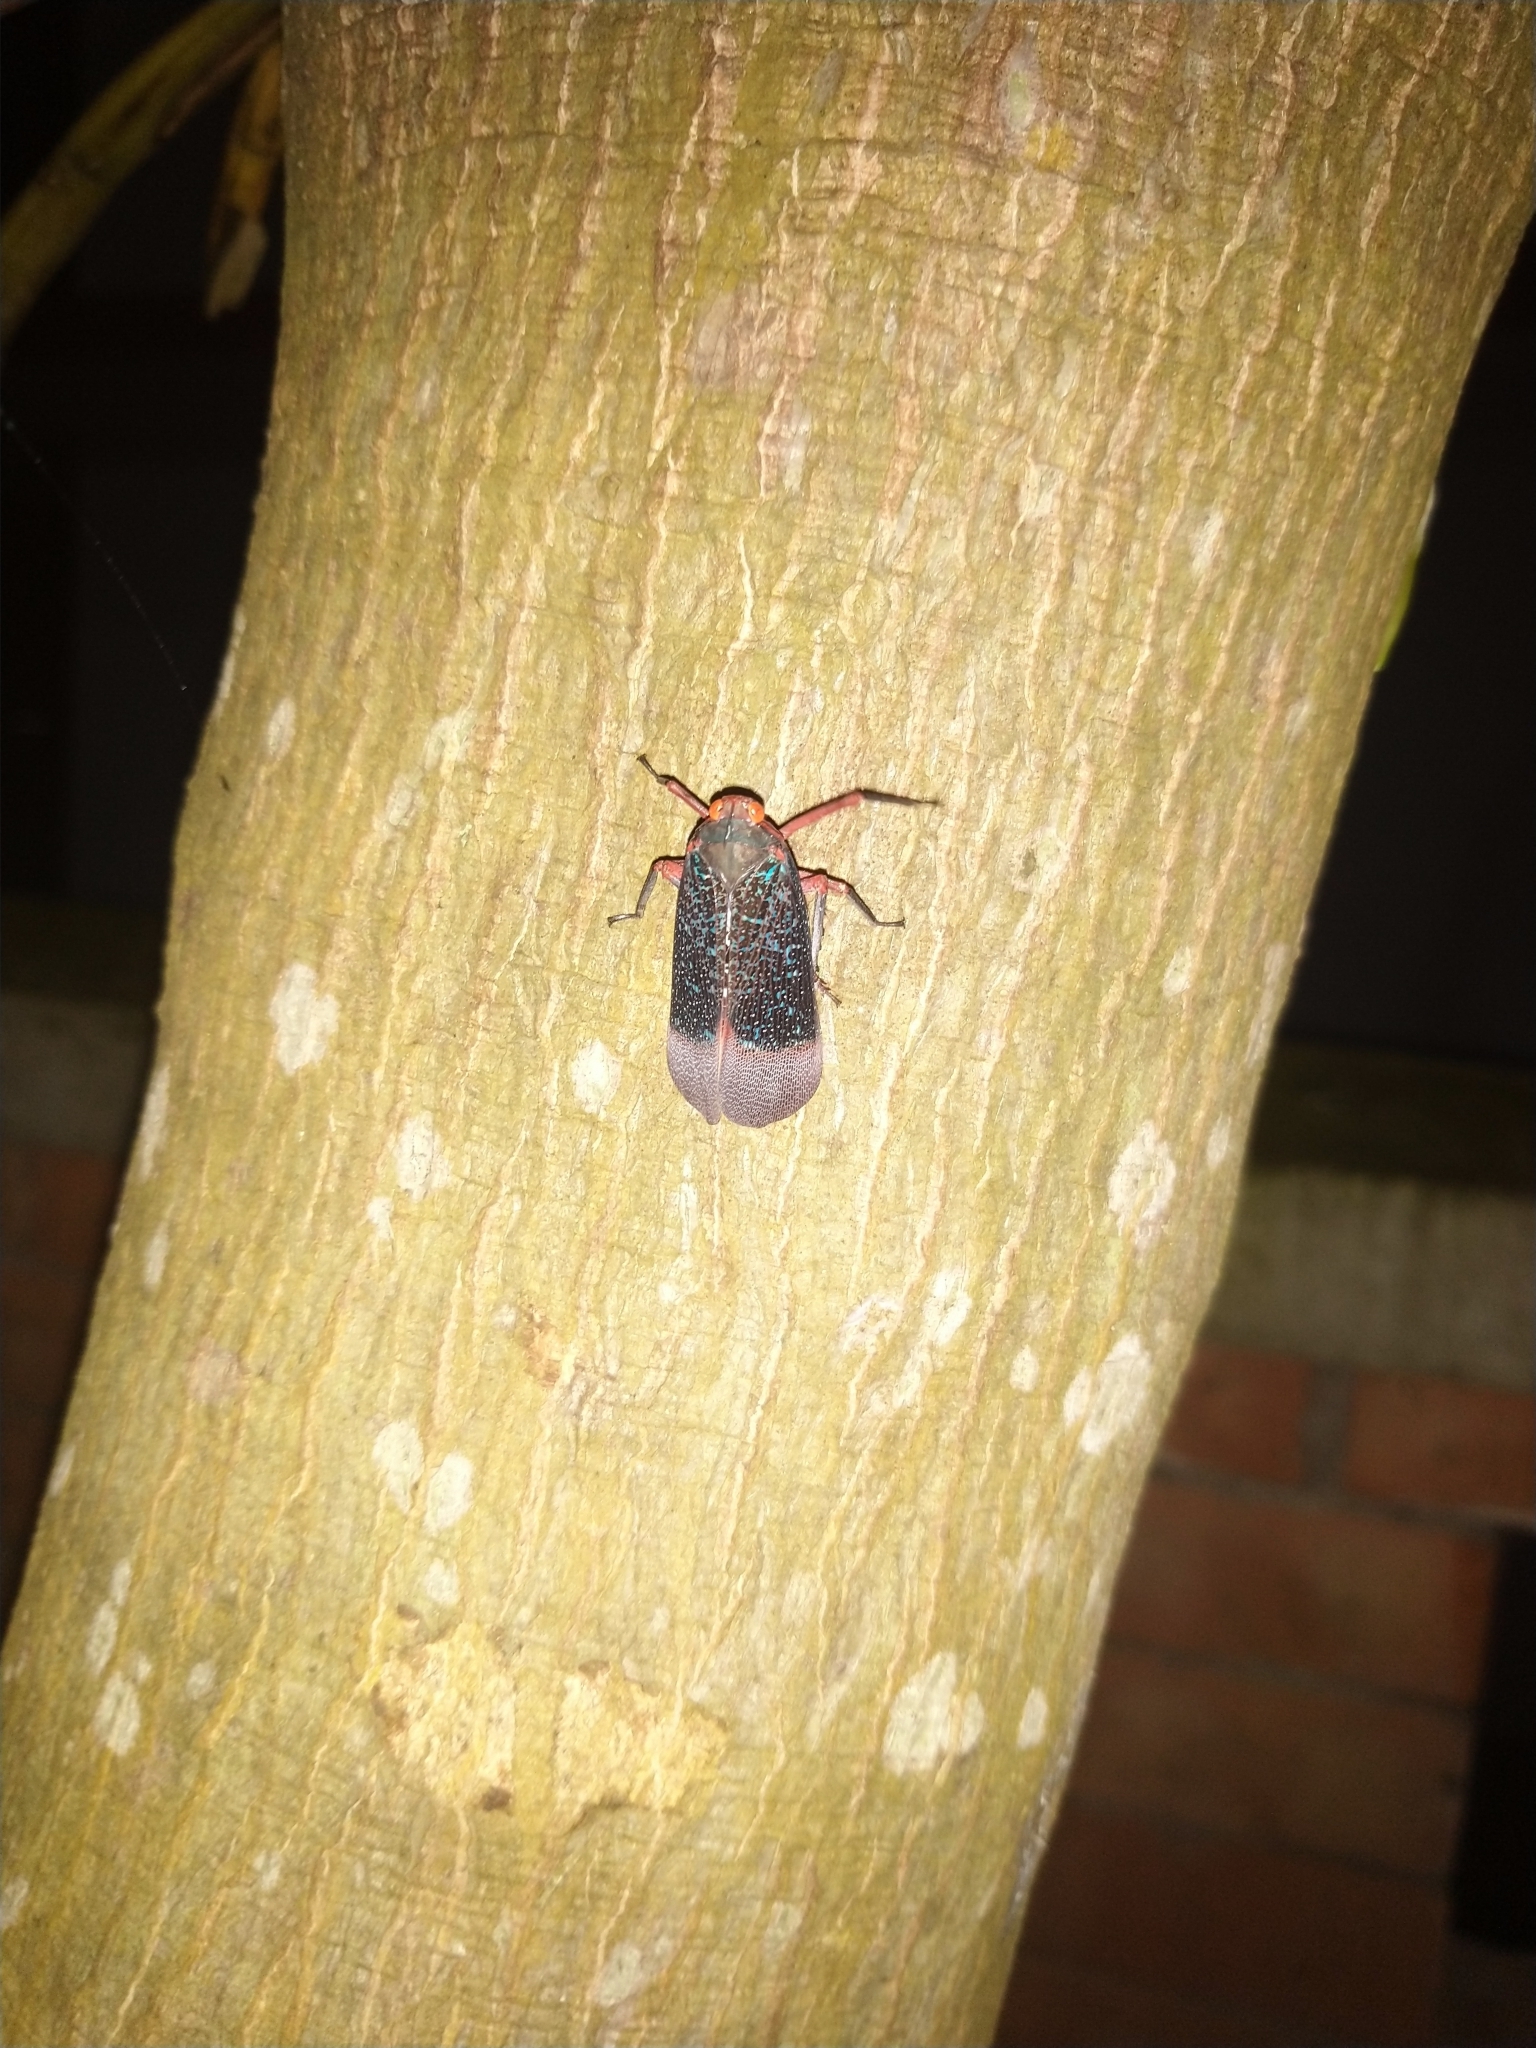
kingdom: Animalia
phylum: Arthropoda
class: Insecta
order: Hemiptera
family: Fulgoridae
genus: Kalidasa
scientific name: Kalidasa lanata
